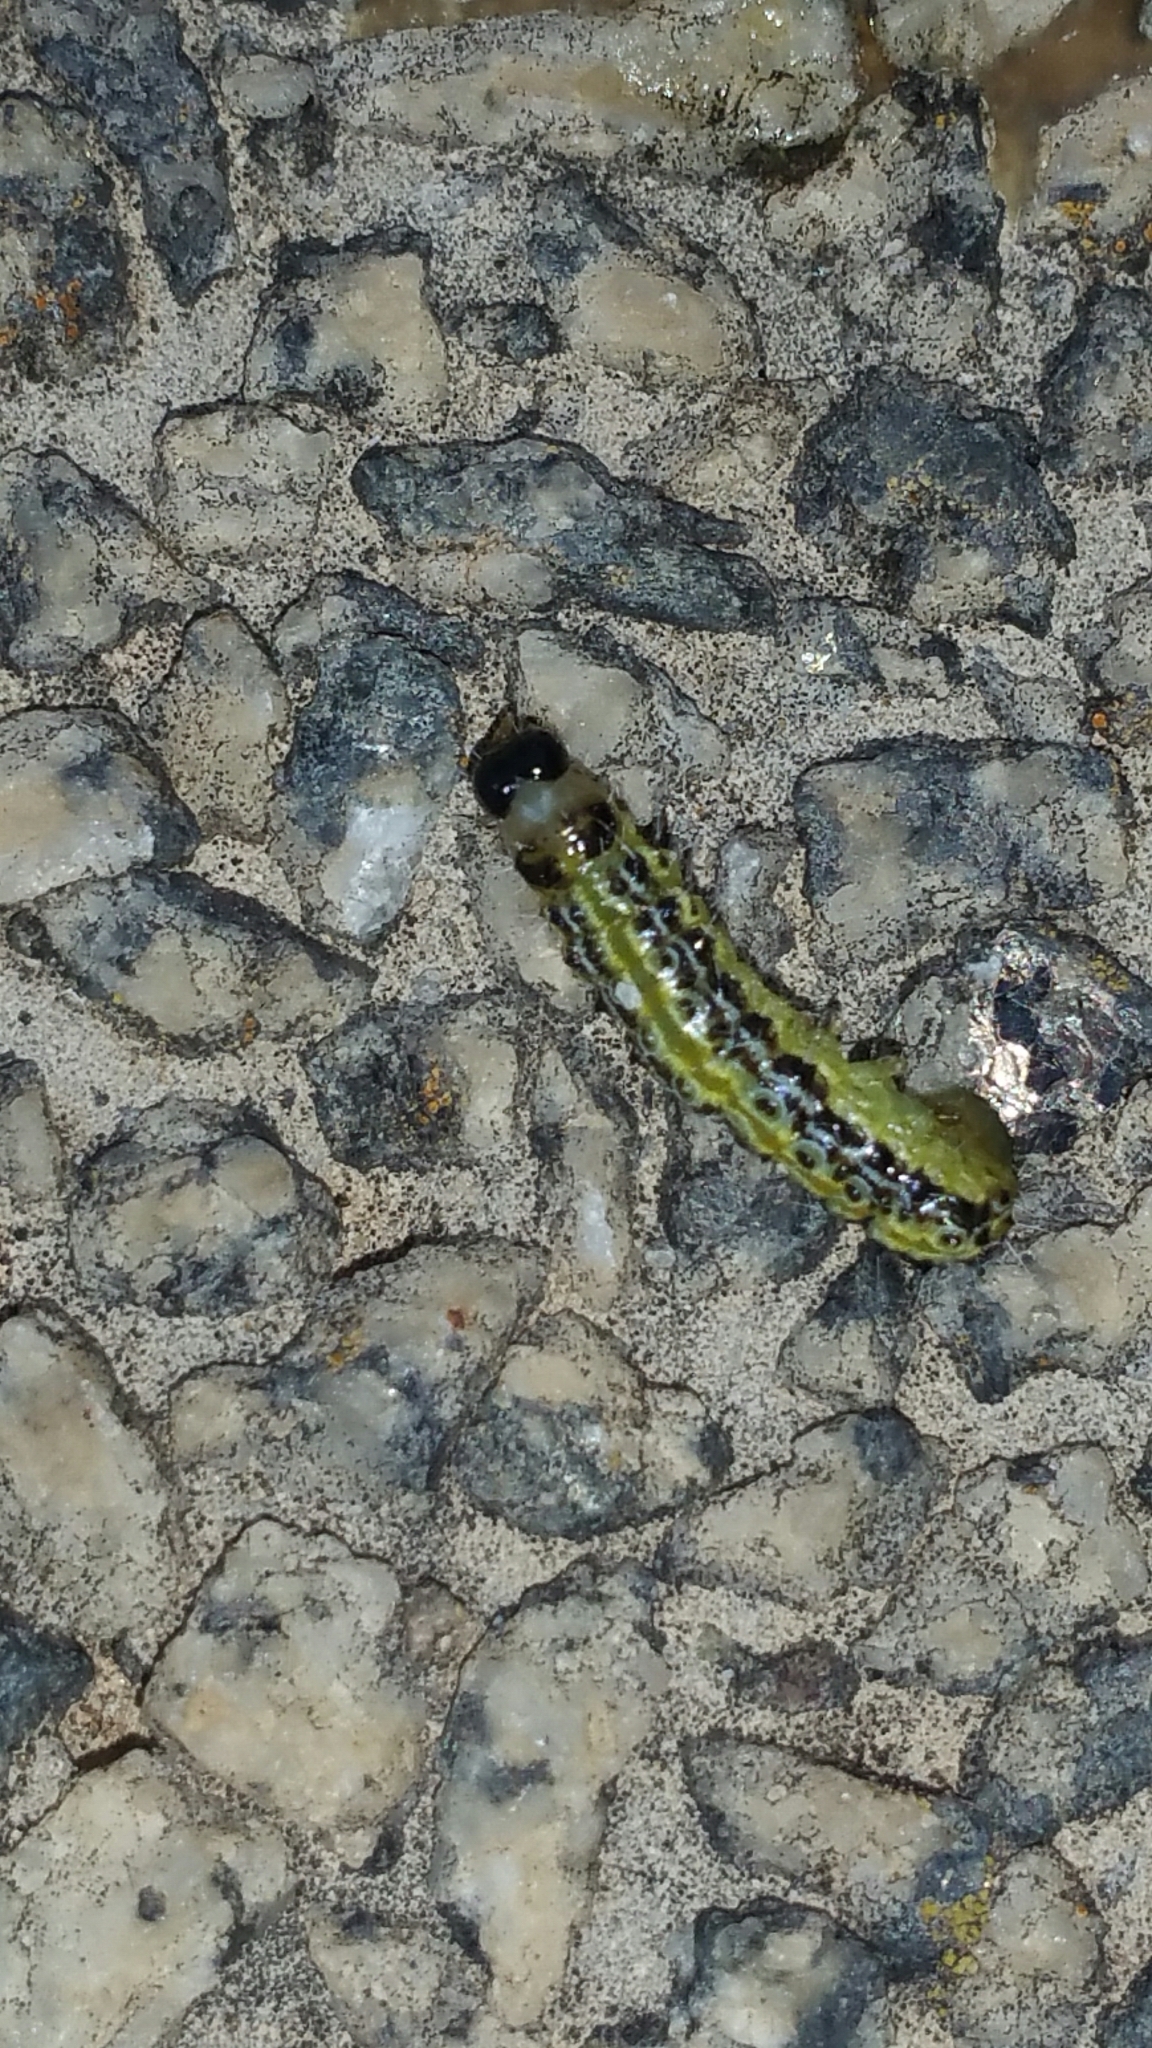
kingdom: Animalia
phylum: Arthropoda
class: Insecta
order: Lepidoptera
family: Crambidae
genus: Cydalima
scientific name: Cydalima perspectalis
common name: Box tree moth
